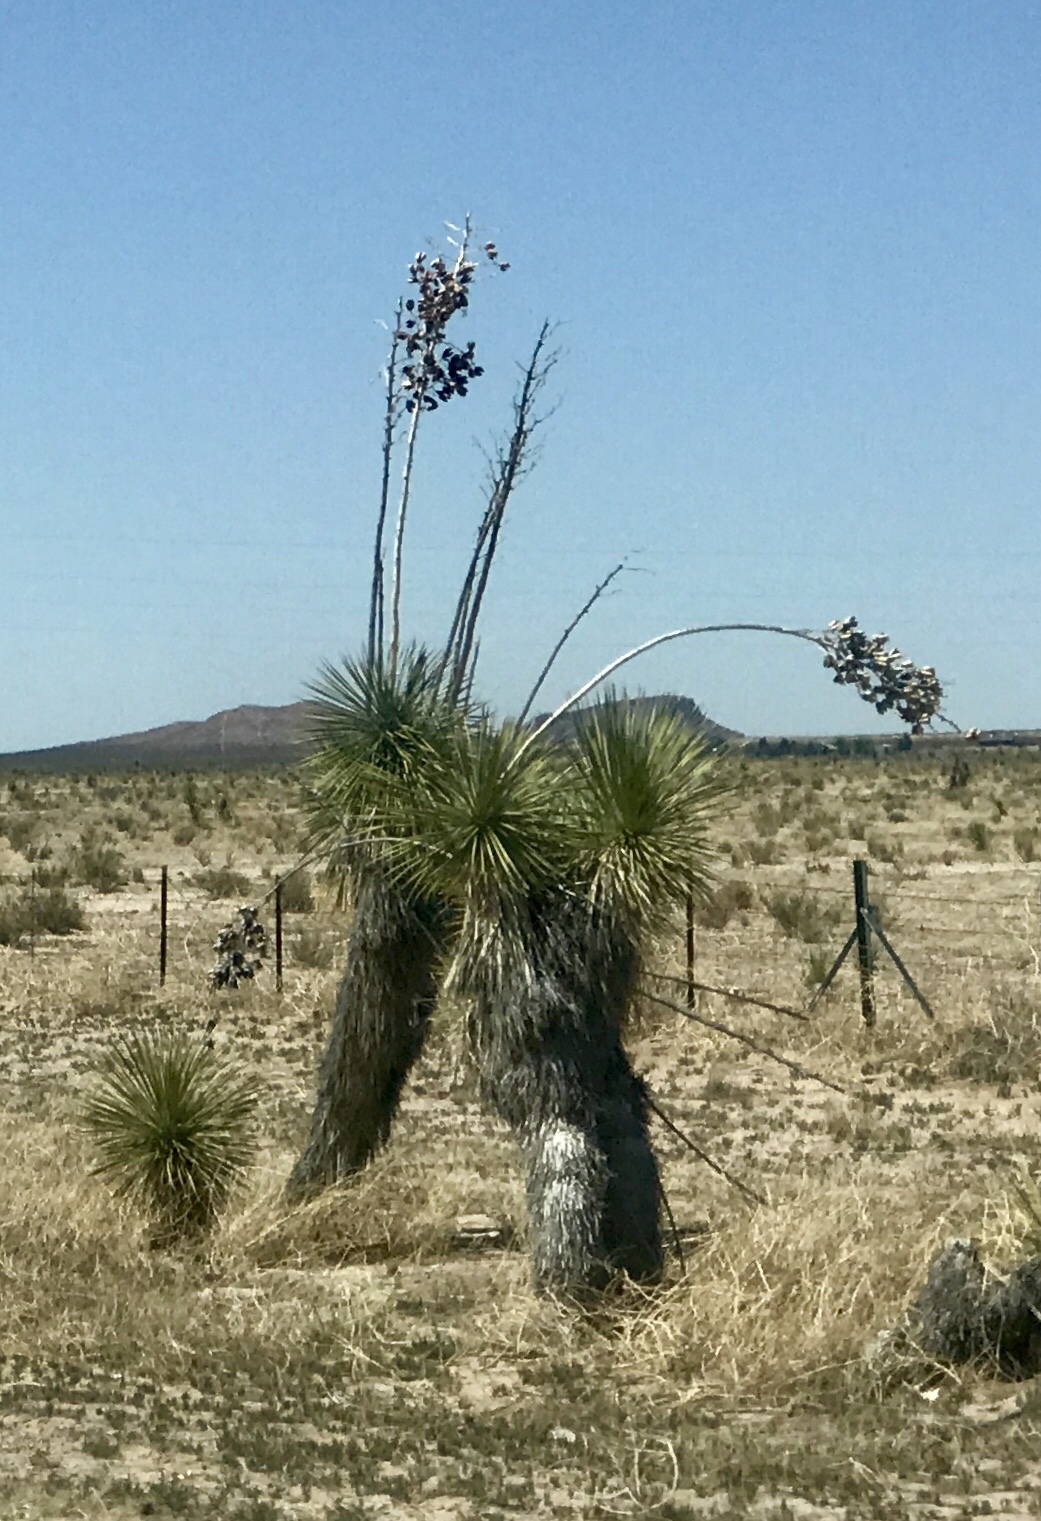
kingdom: Plantae
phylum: Tracheophyta
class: Liliopsida
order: Asparagales
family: Asparagaceae
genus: Yucca
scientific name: Yucca elata
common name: Palmella
